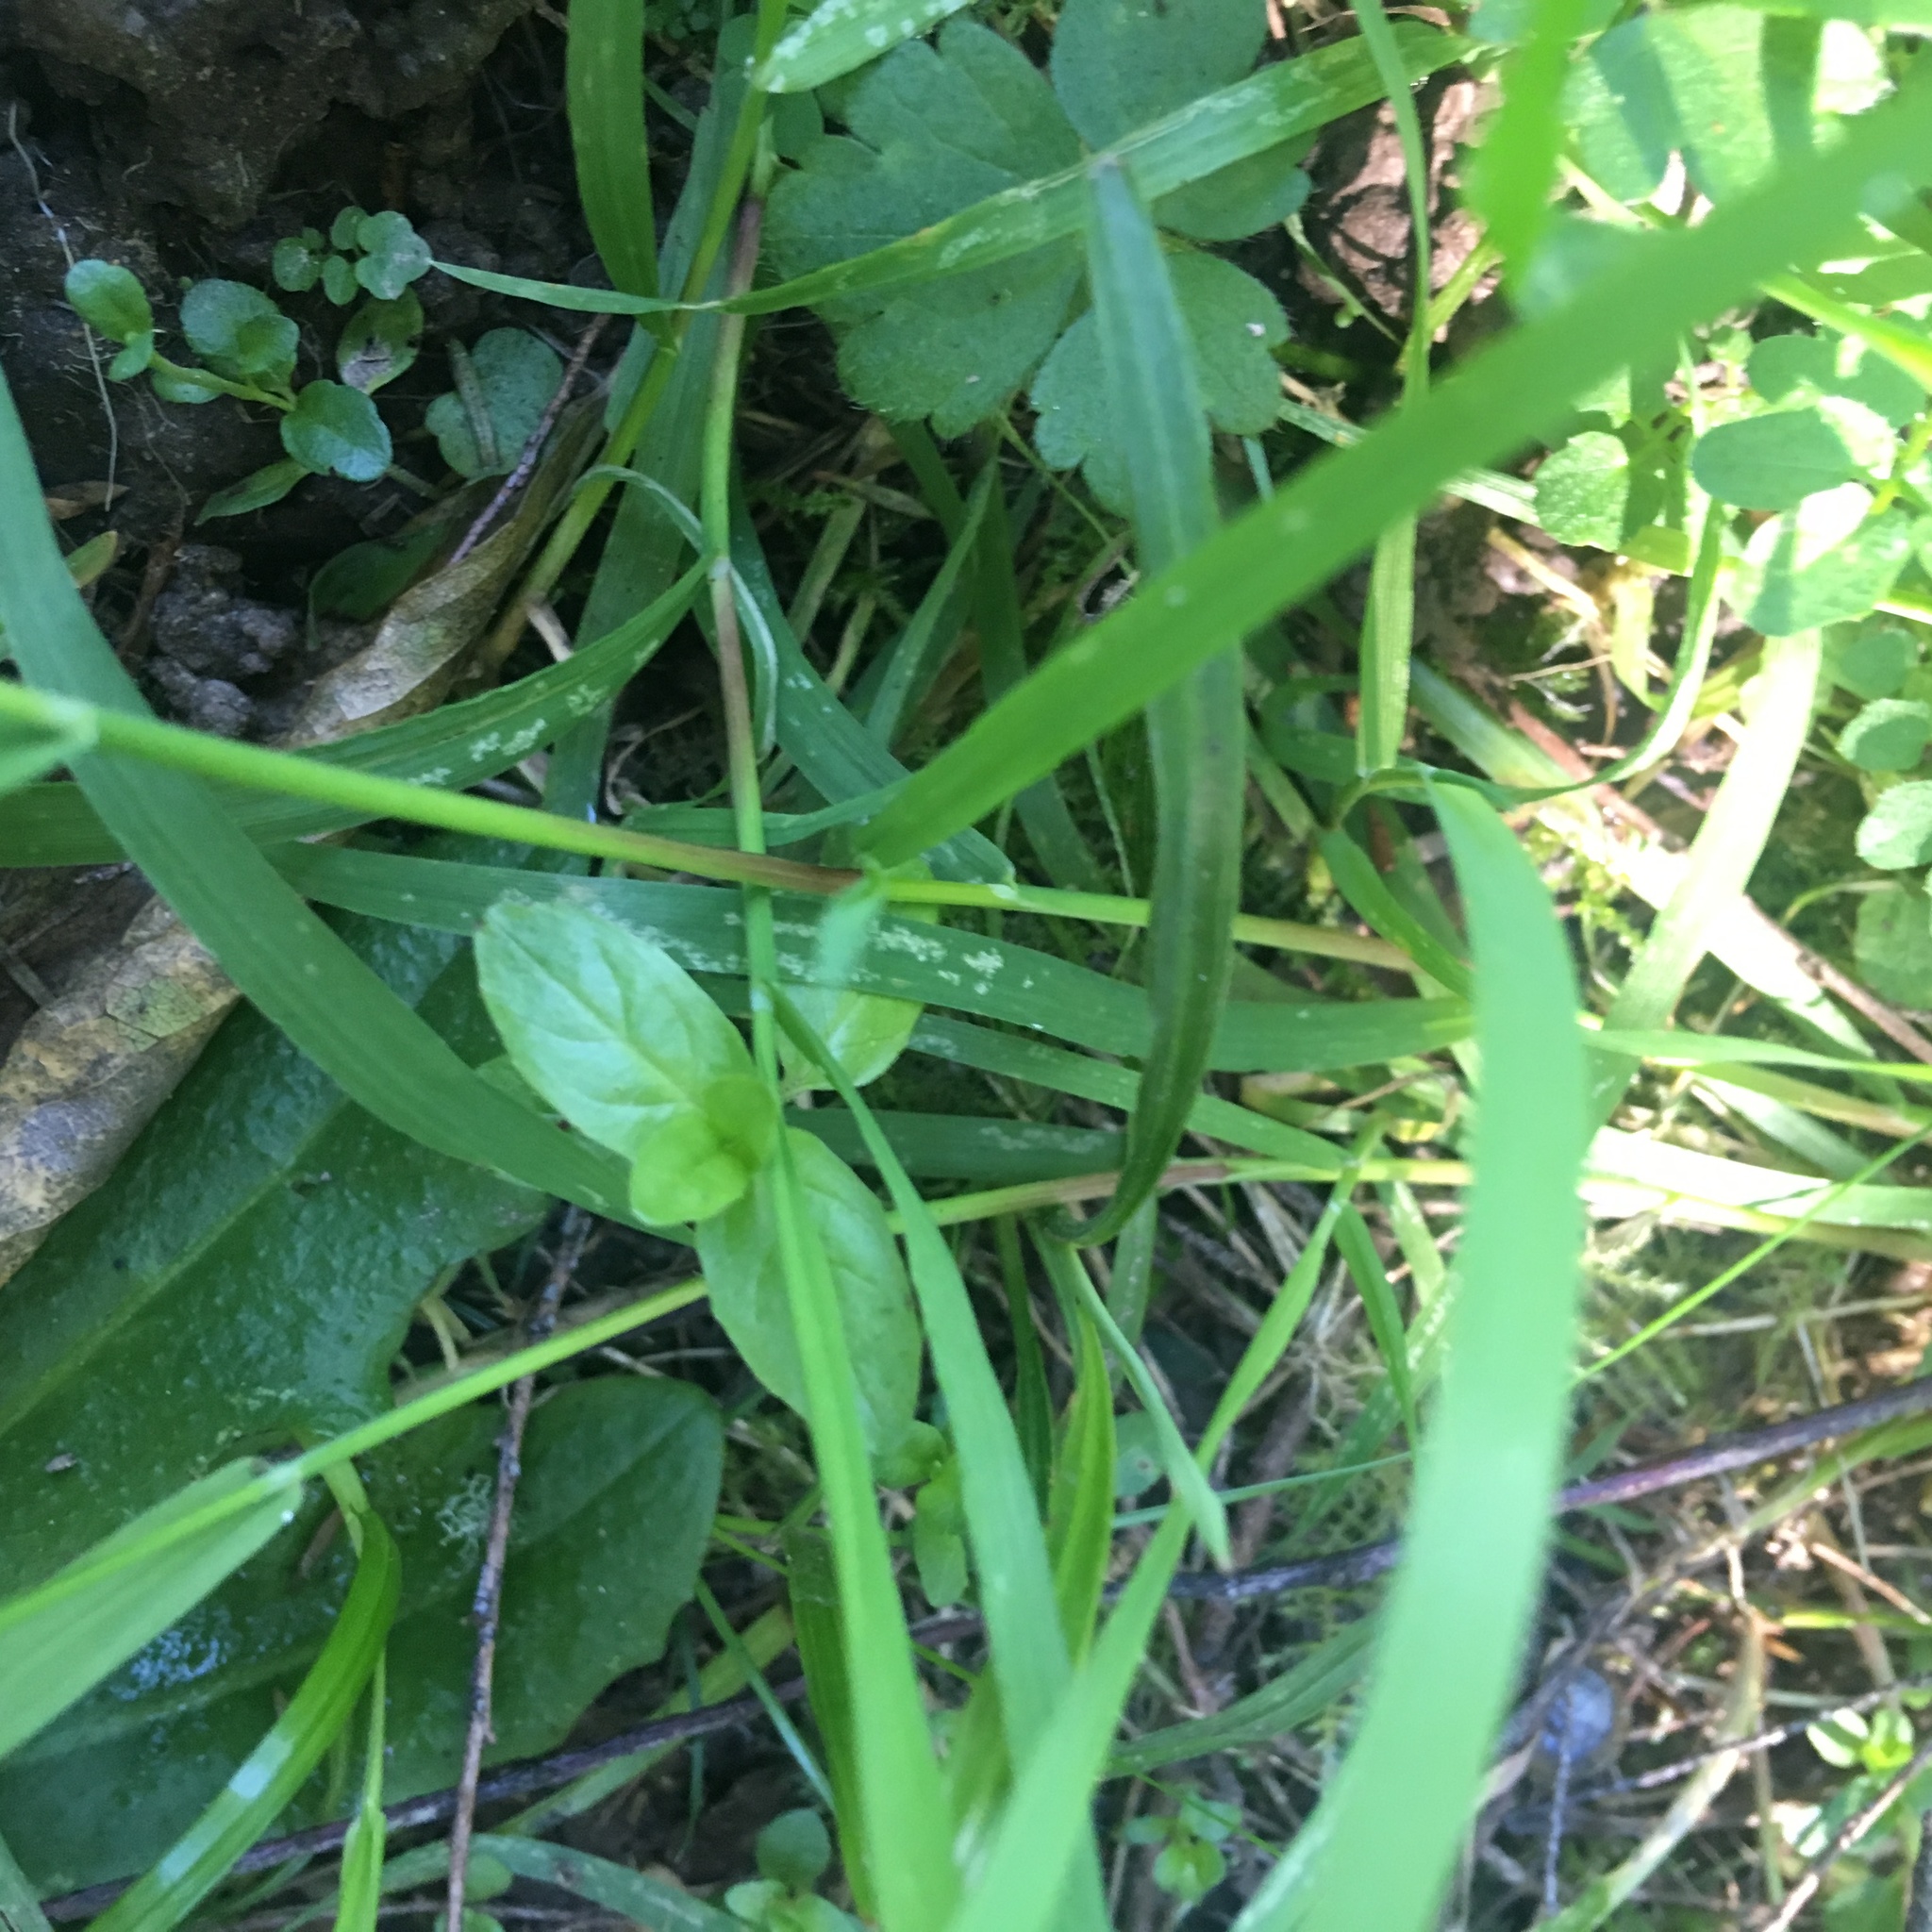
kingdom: Plantae
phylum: Tracheophyta
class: Magnoliopsida
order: Myrtales
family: Onagraceae
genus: Epilobium
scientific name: Epilobium ciliatum
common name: American willowherb
